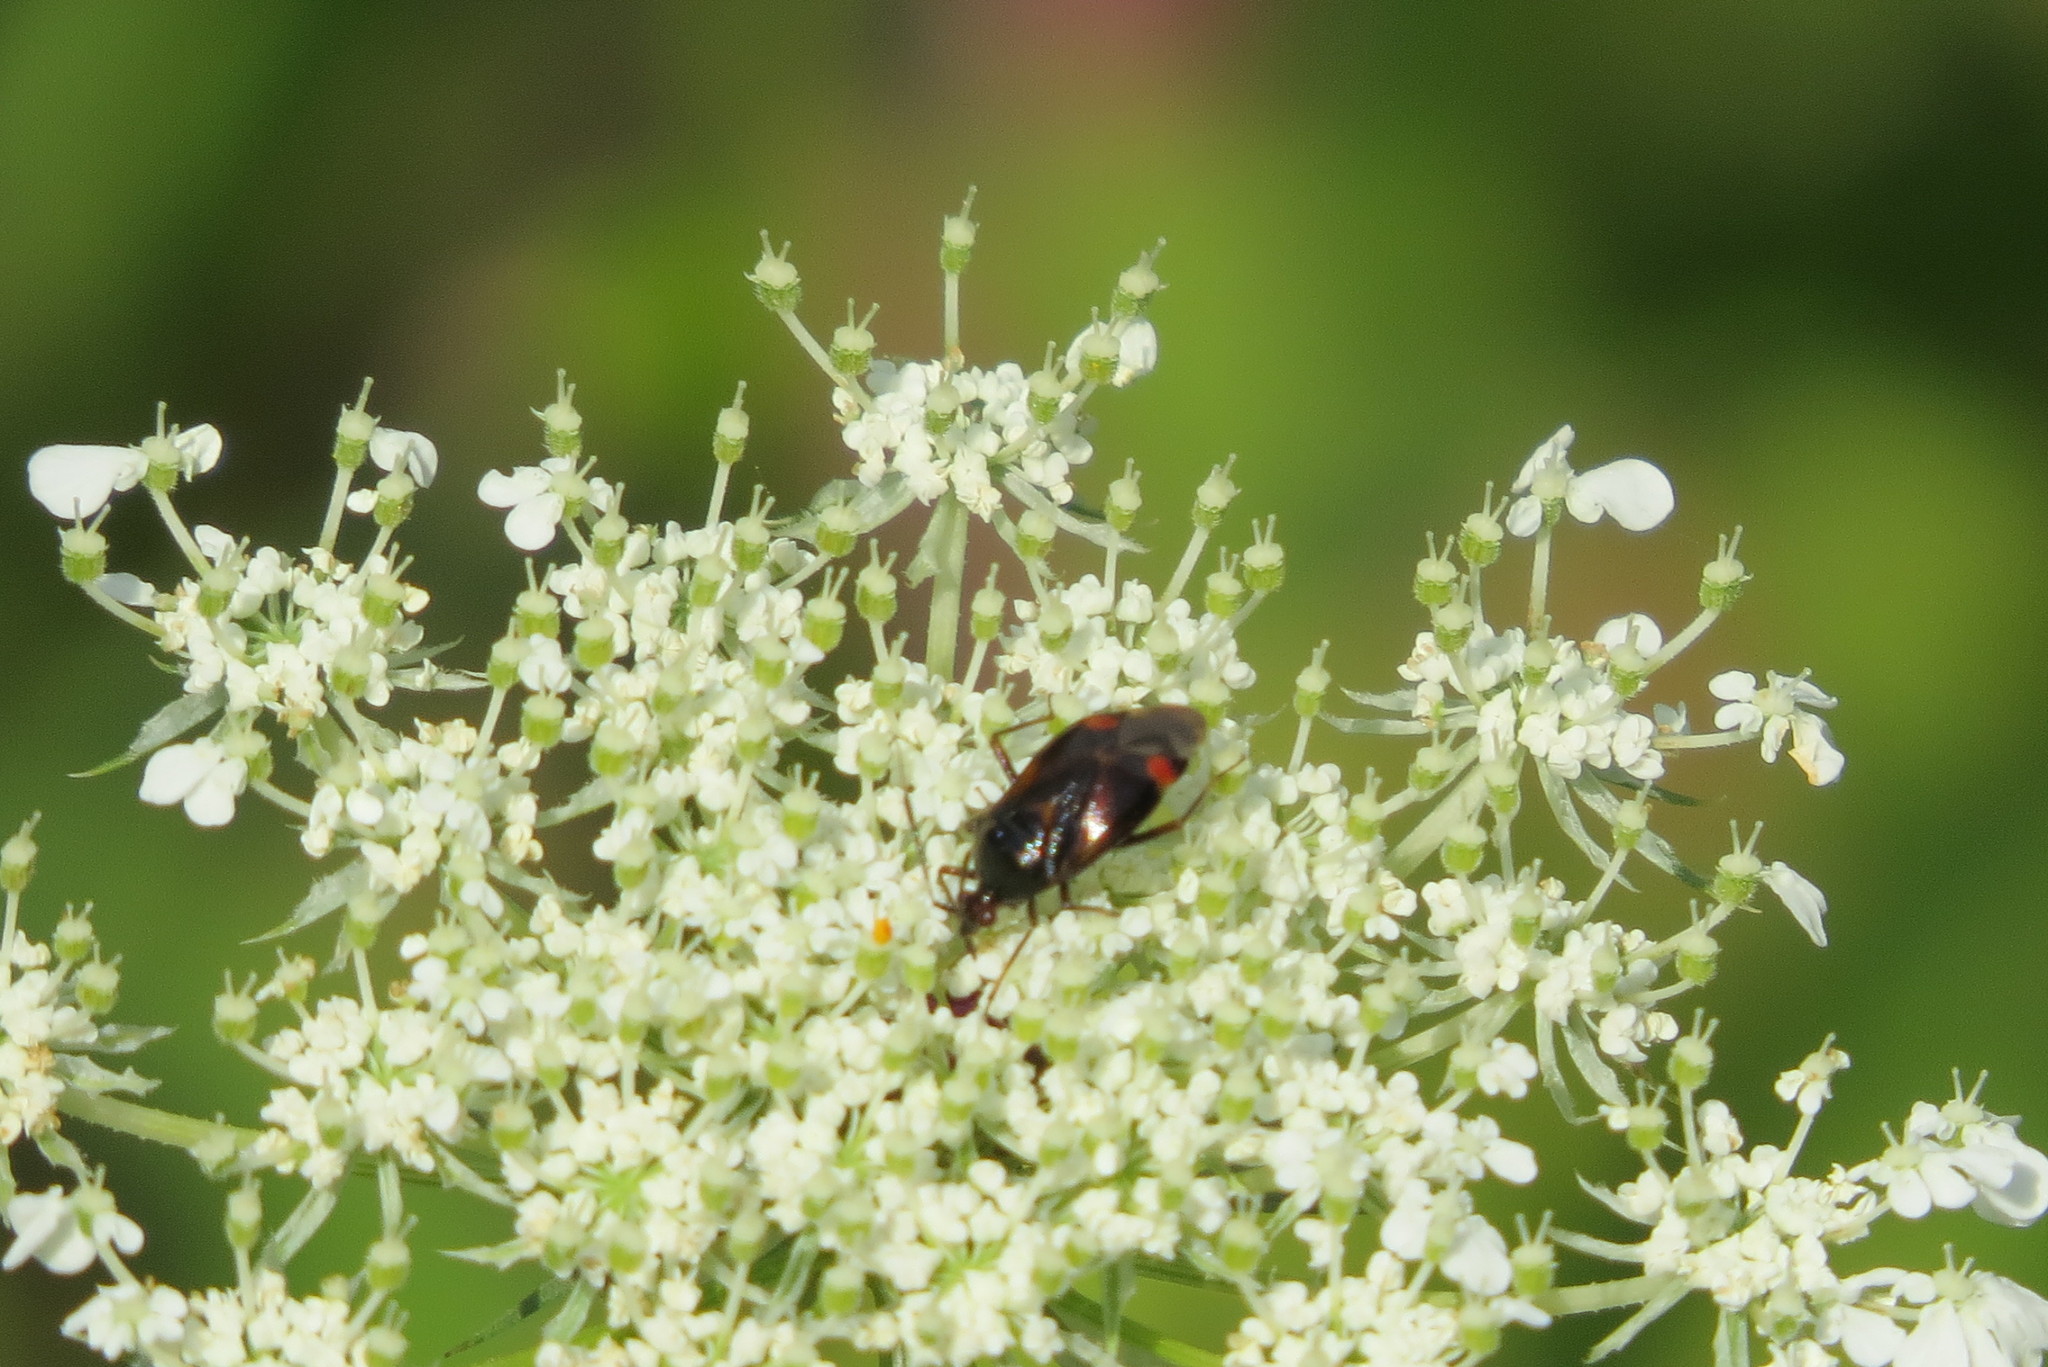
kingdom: Animalia
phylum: Arthropoda
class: Insecta
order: Hemiptera
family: Miridae
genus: Deraeocoris
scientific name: Deraeocoris ruber
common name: Plant bug
